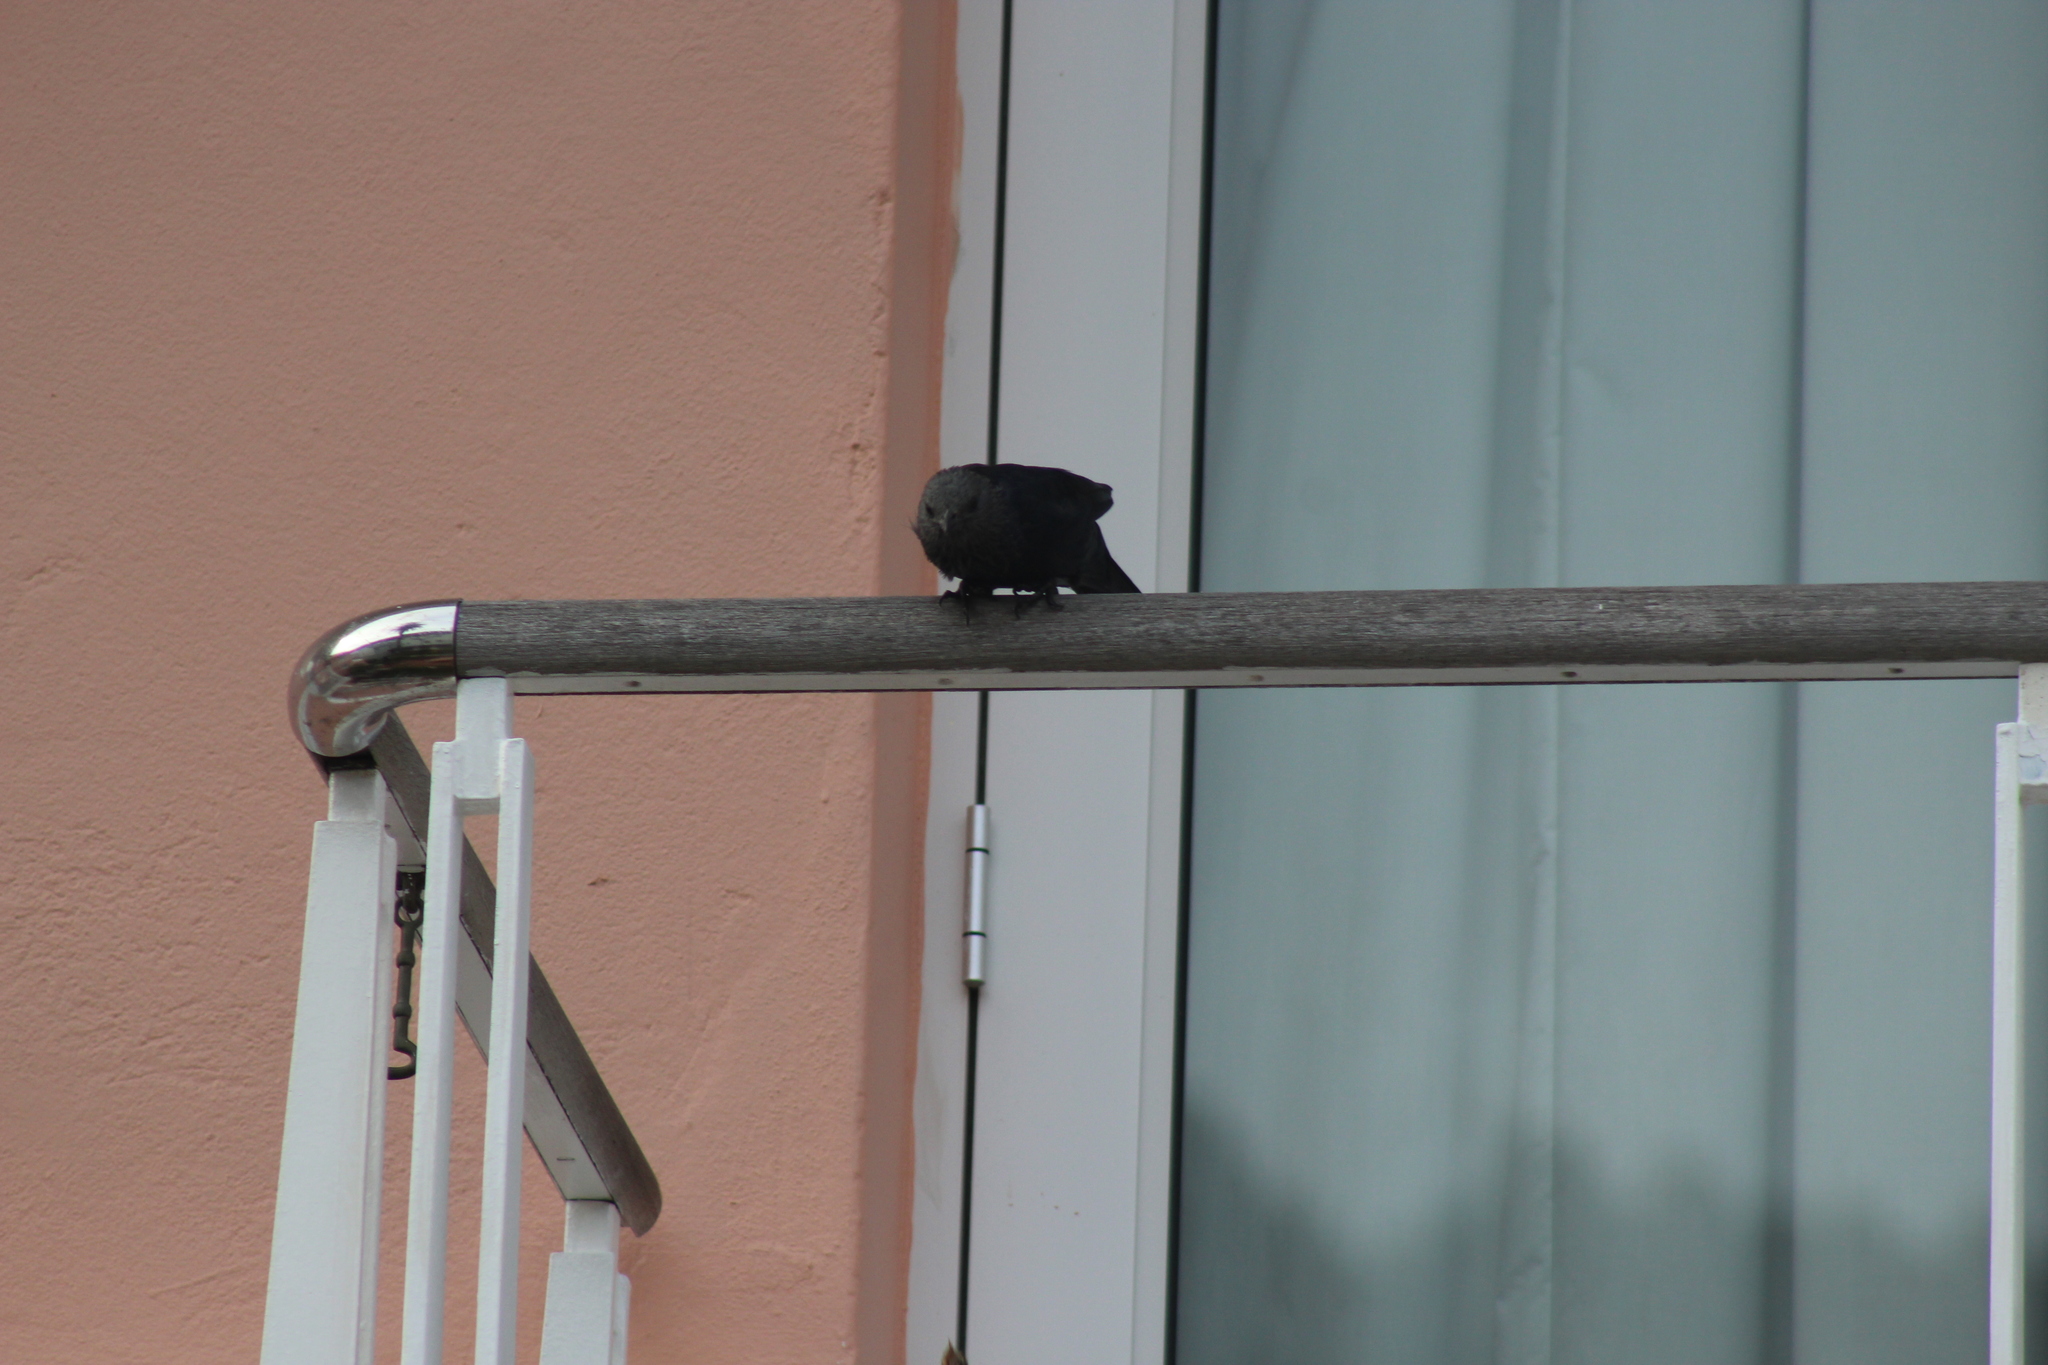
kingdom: Animalia
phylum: Chordata
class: Aves
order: Passeriformes
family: Sturnidae
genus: Onychognathus
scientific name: Onychognathus morio
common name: Red-winged starling
